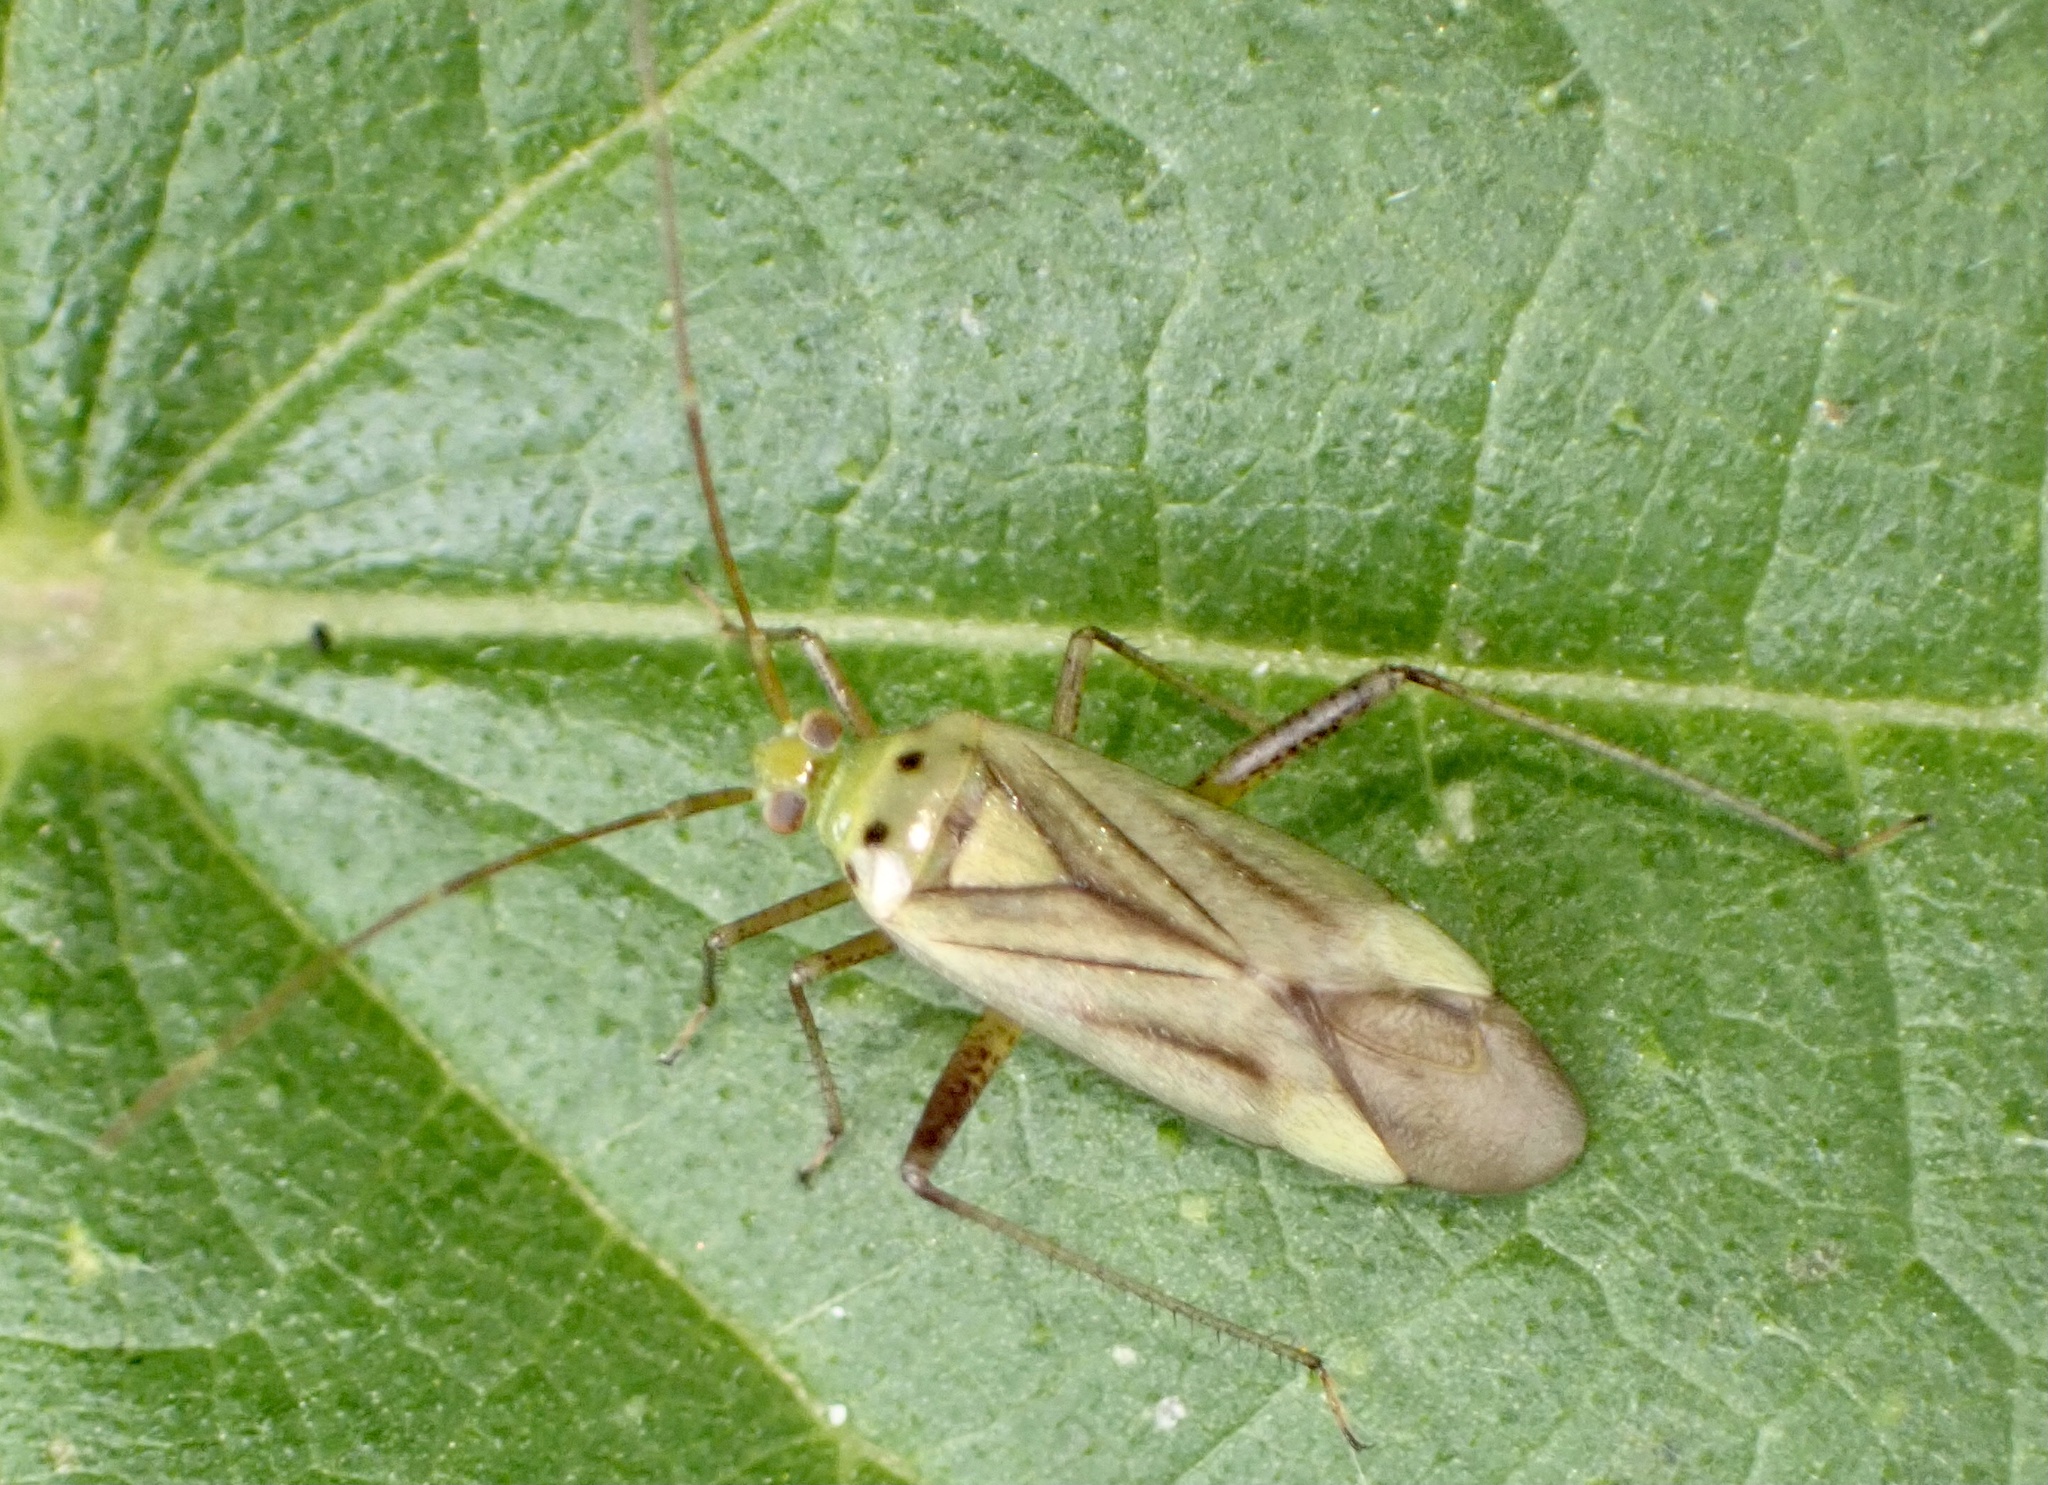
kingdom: Animalia
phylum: Arthropoda
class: Insecta
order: Hemiptera
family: Miridae
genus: Adelphocoris
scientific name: Adelphocoris quadripunctatus
